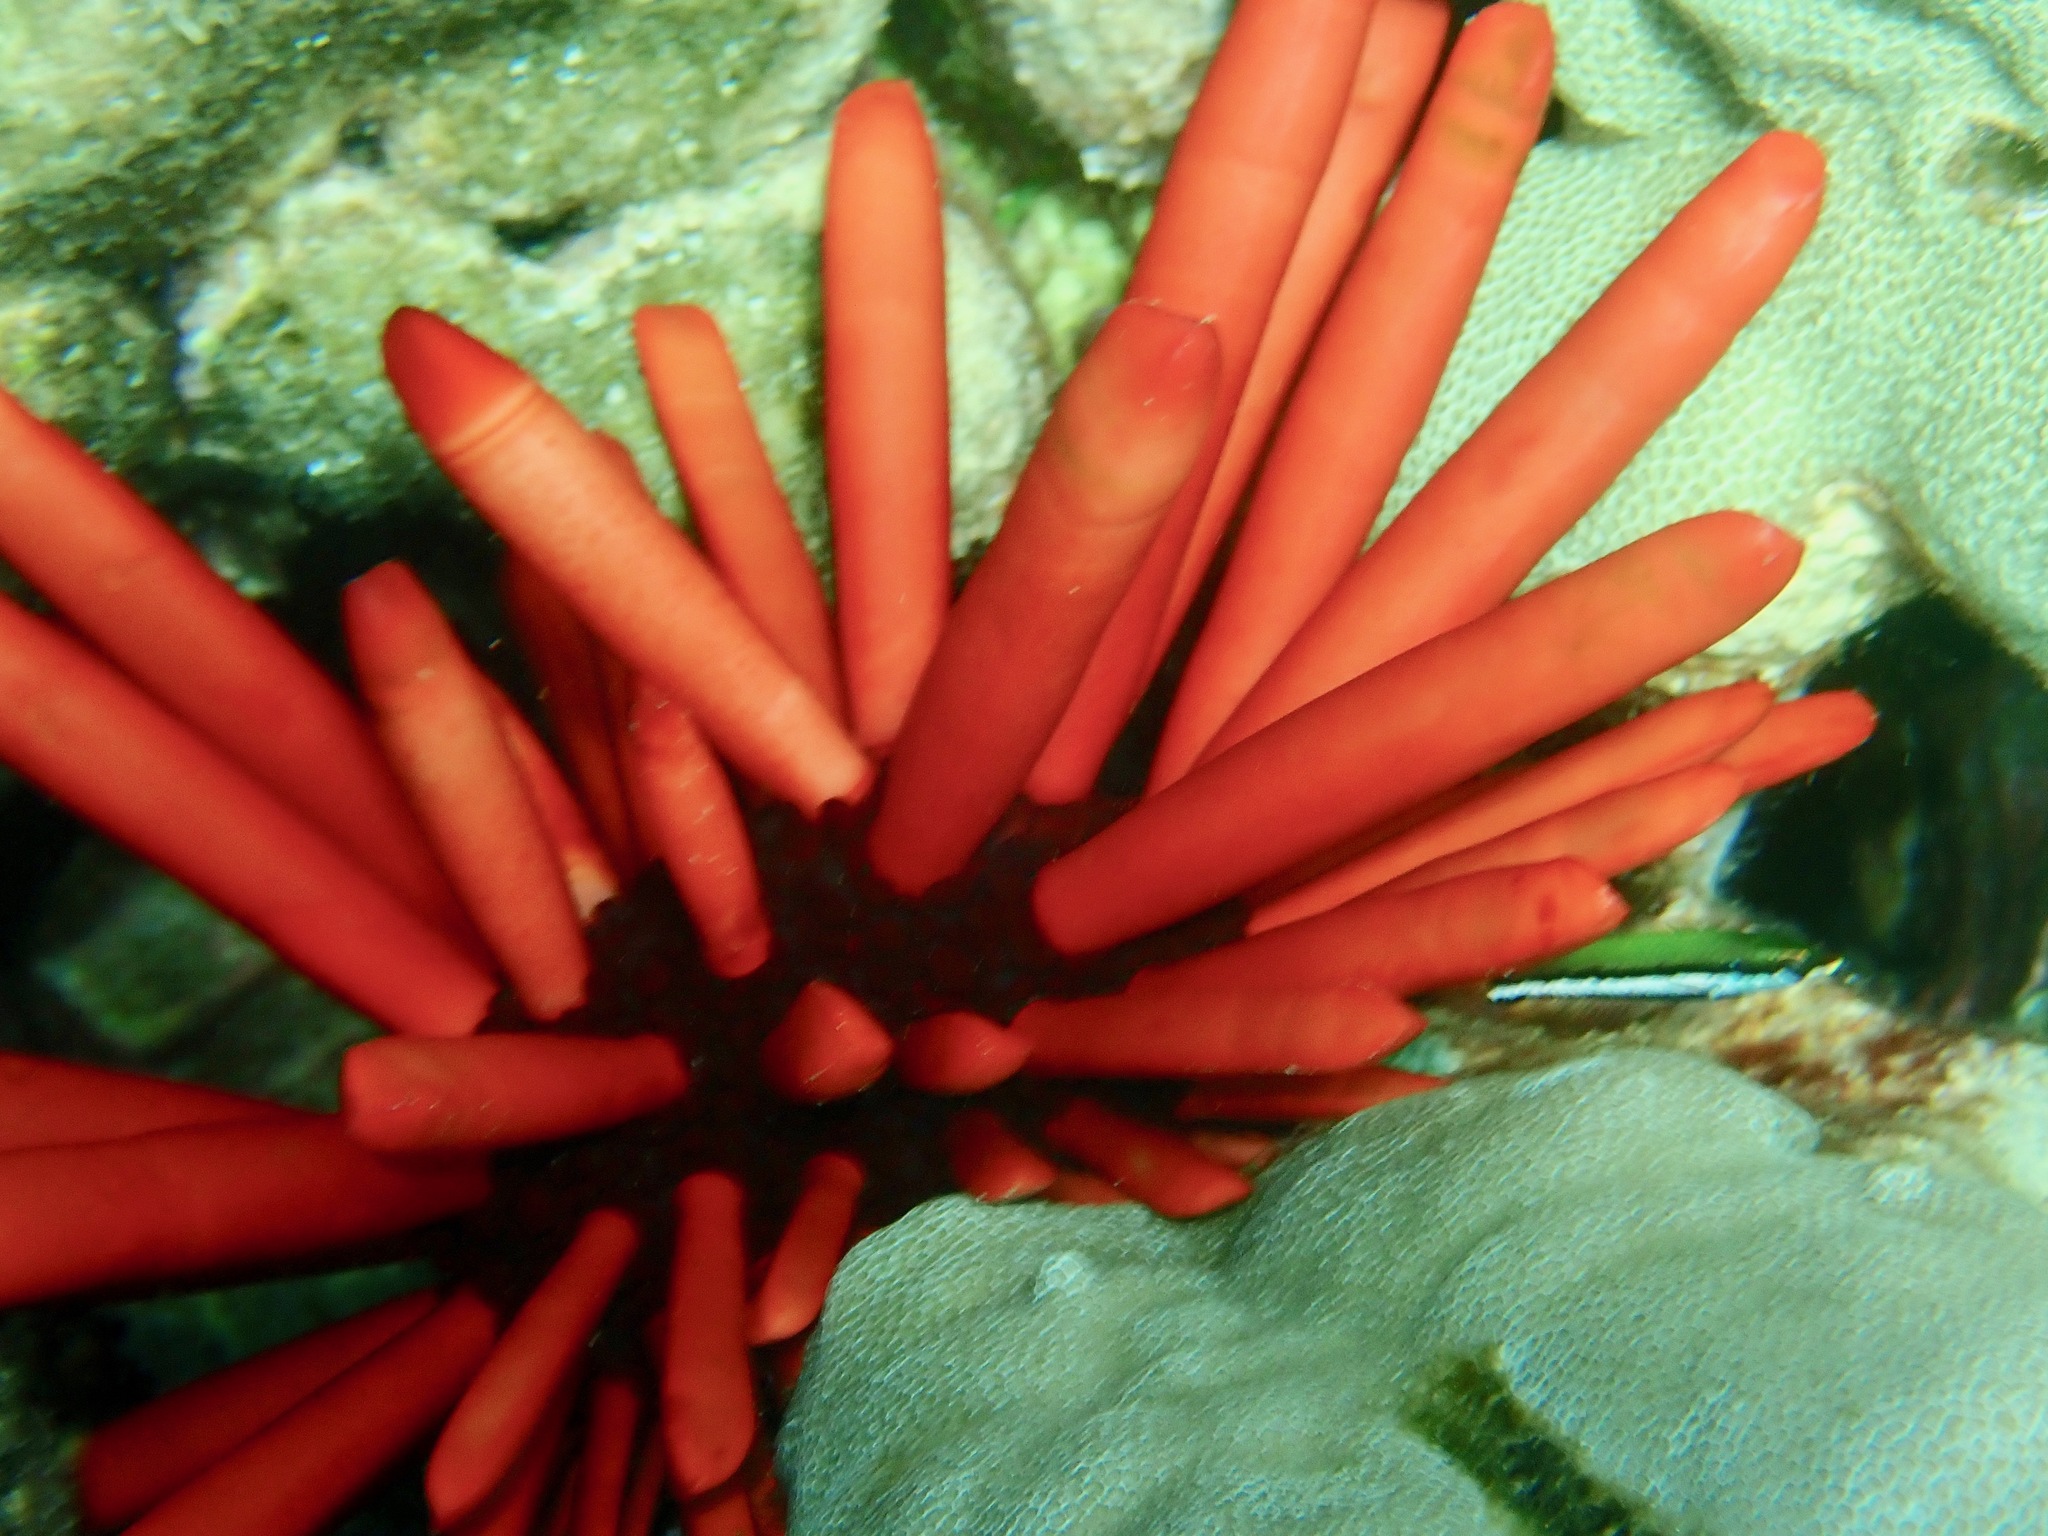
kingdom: Animalia
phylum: Echinodermata
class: Echinoidea
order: Camarodonta
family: Echinometridae
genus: Heterocentrotus
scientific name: Heterocentrotus mamillatus
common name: Slate pencil urchin
